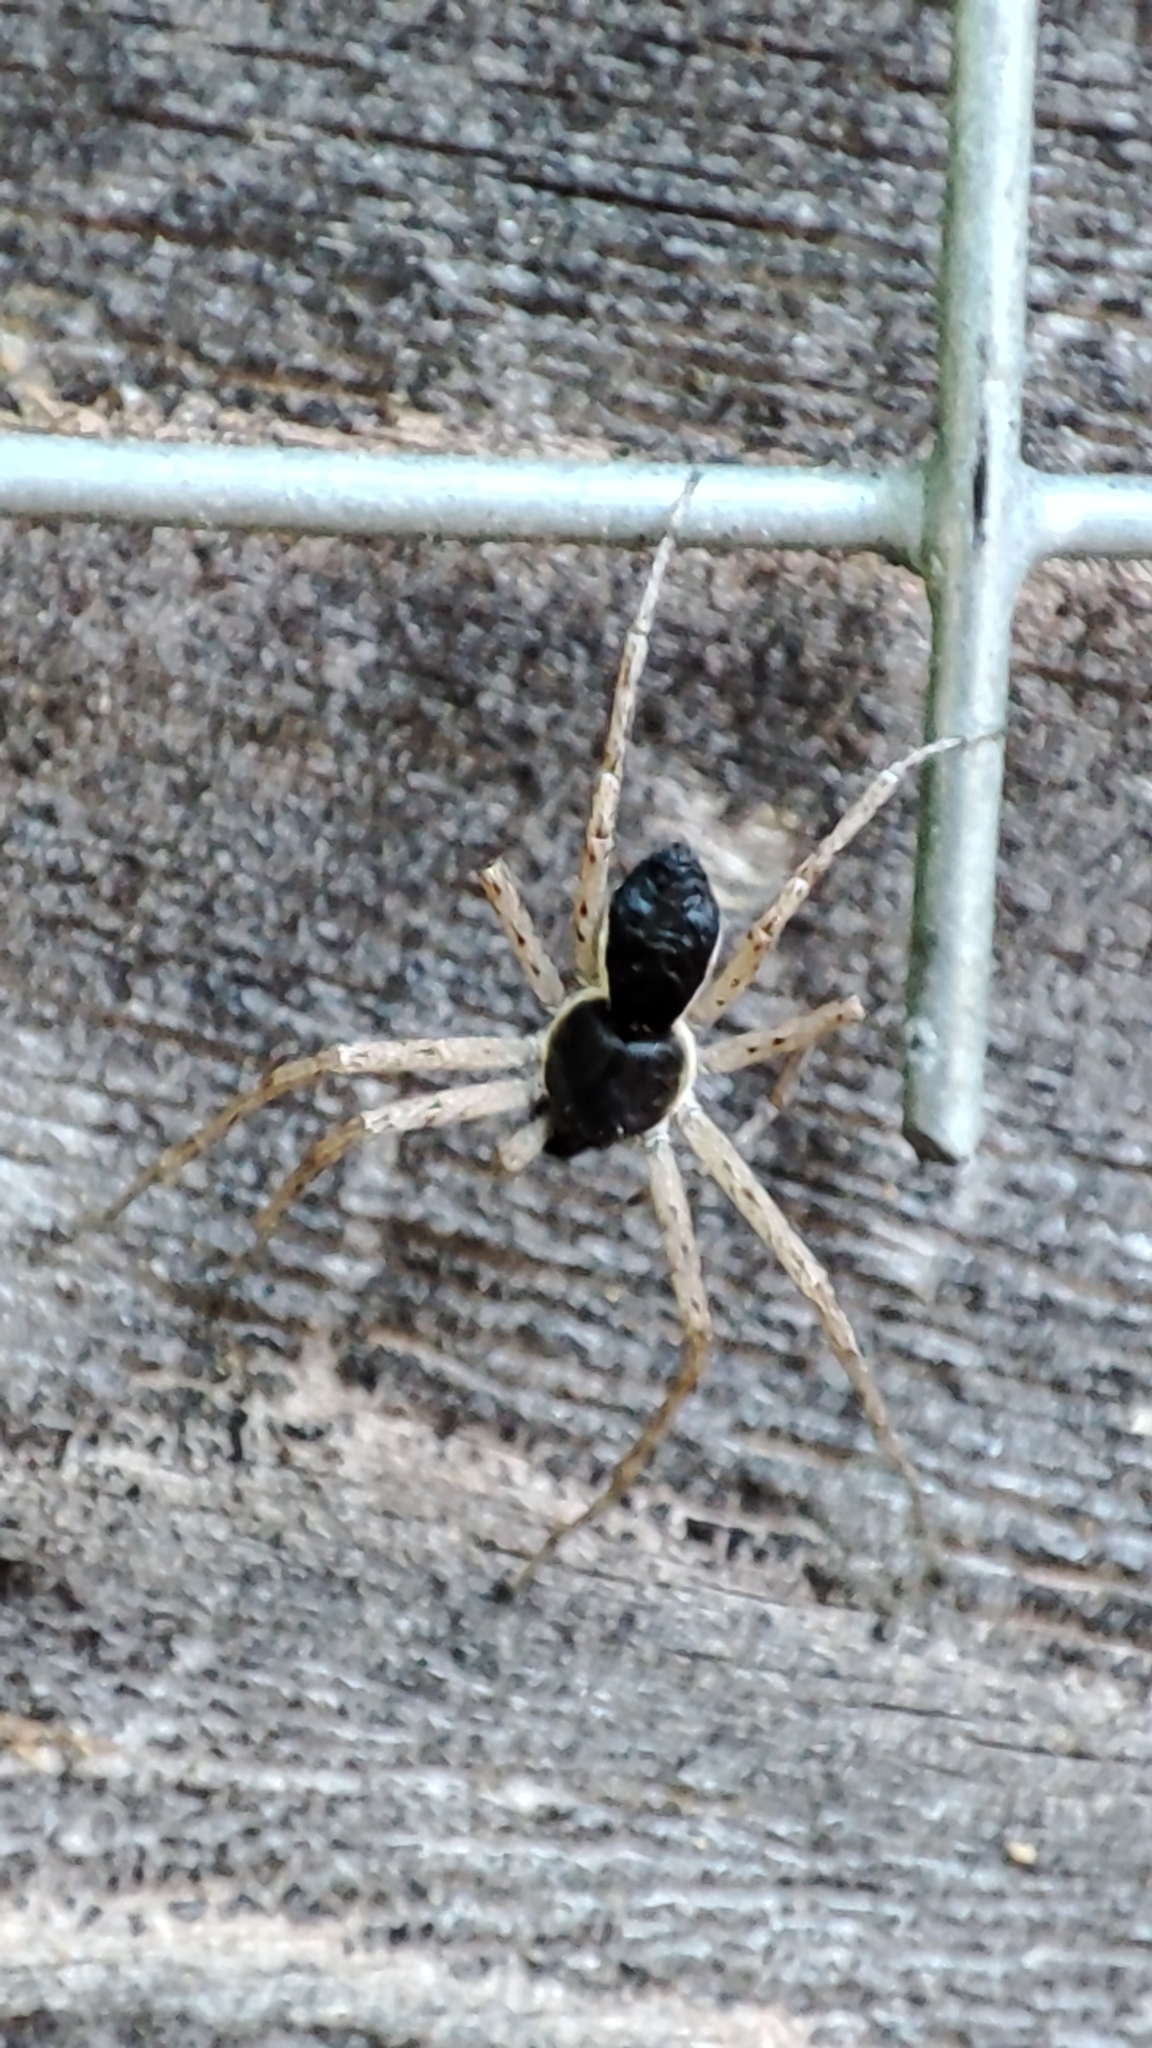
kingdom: Animalia
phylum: Arthropoda
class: Arachnida
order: Araneae
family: Philodromidae
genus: Philodromus
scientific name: Philodromus dispar
